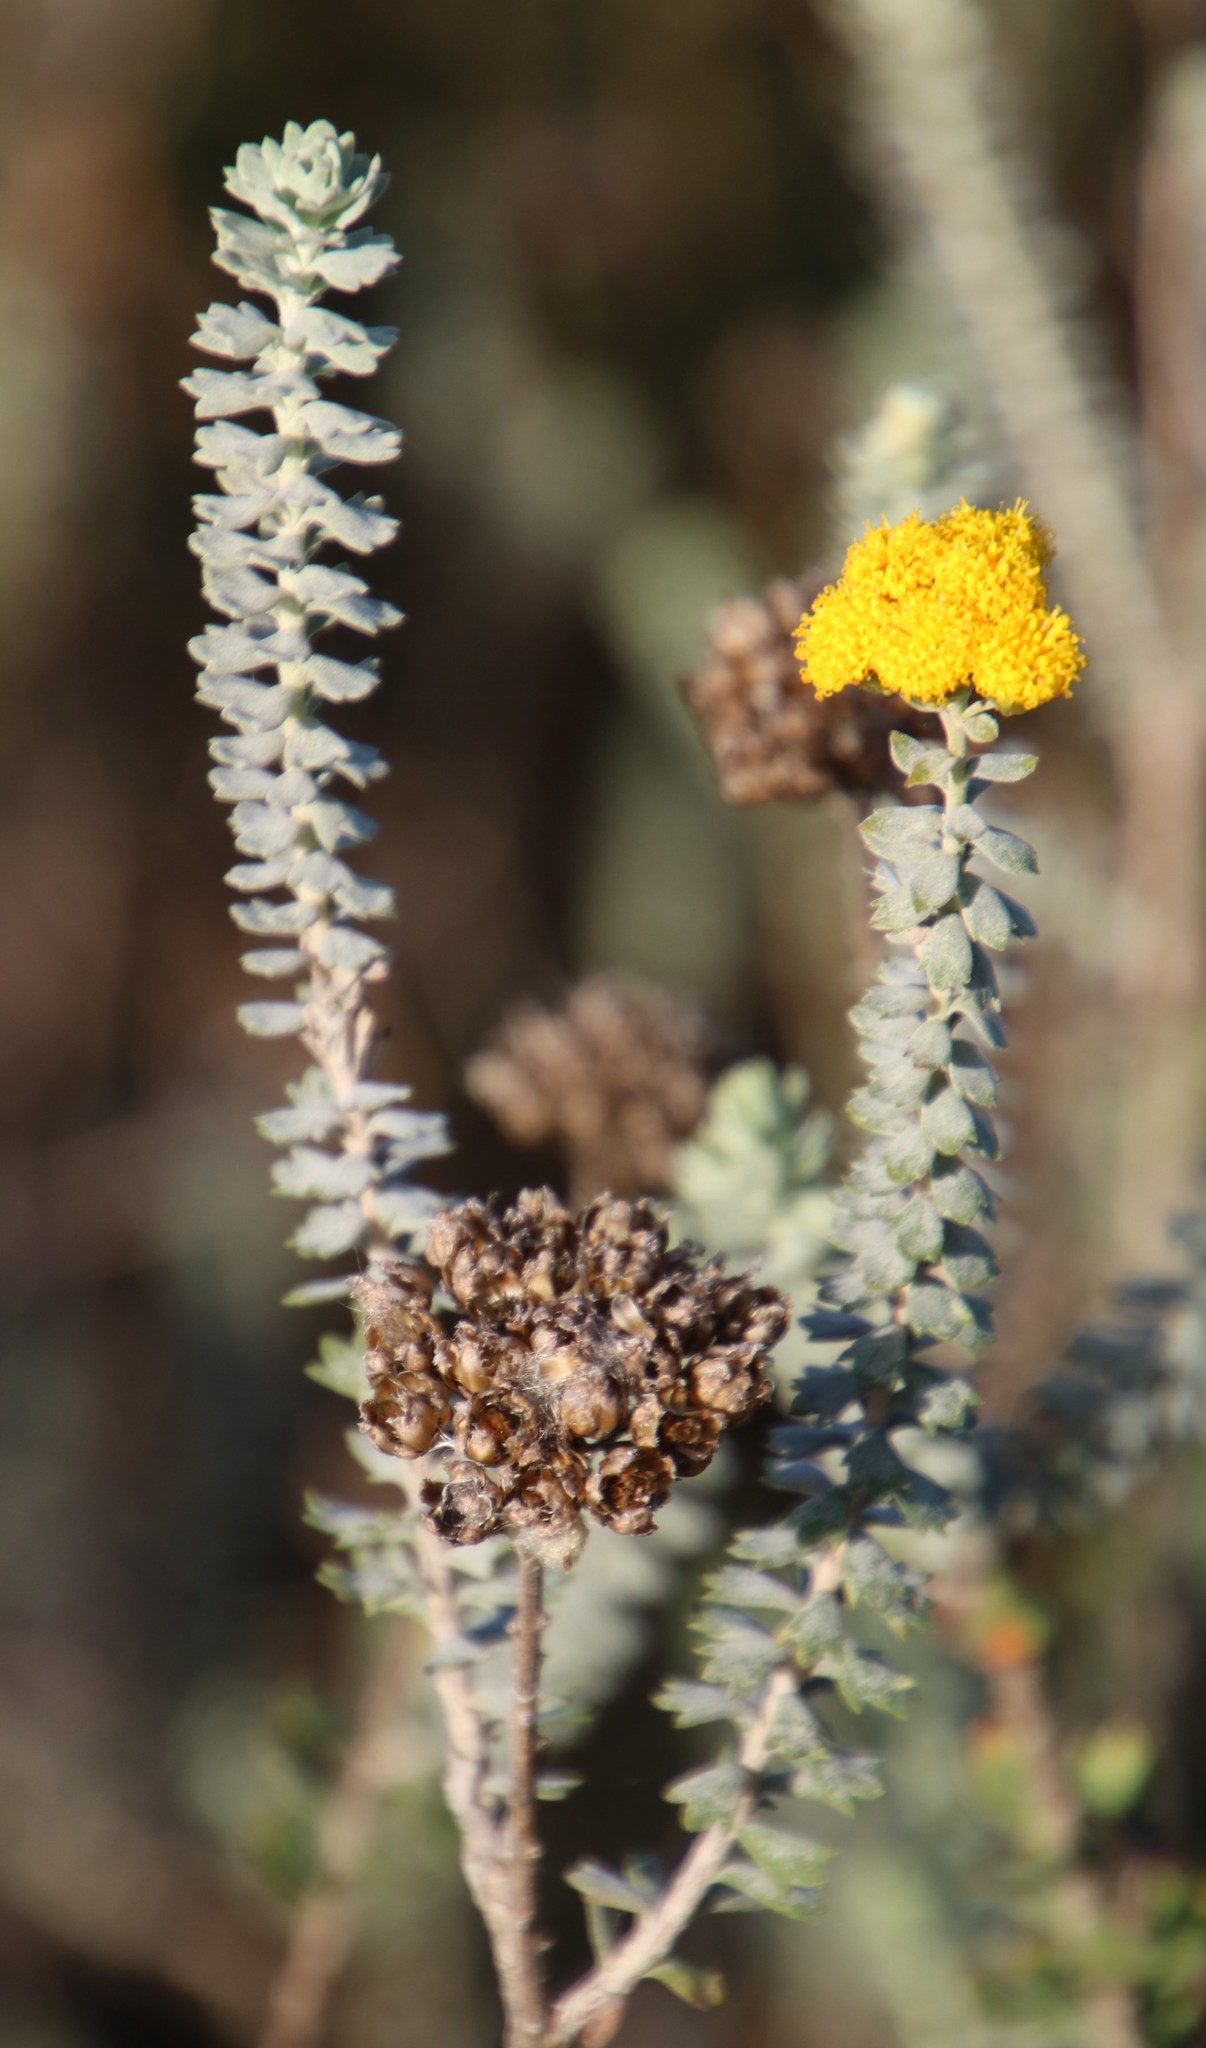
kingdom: Plantae
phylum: Tracheophyta
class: Magnoliopsida
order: Asterales
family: Asteraceae
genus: Athanasia
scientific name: Athanasia trifurcata
